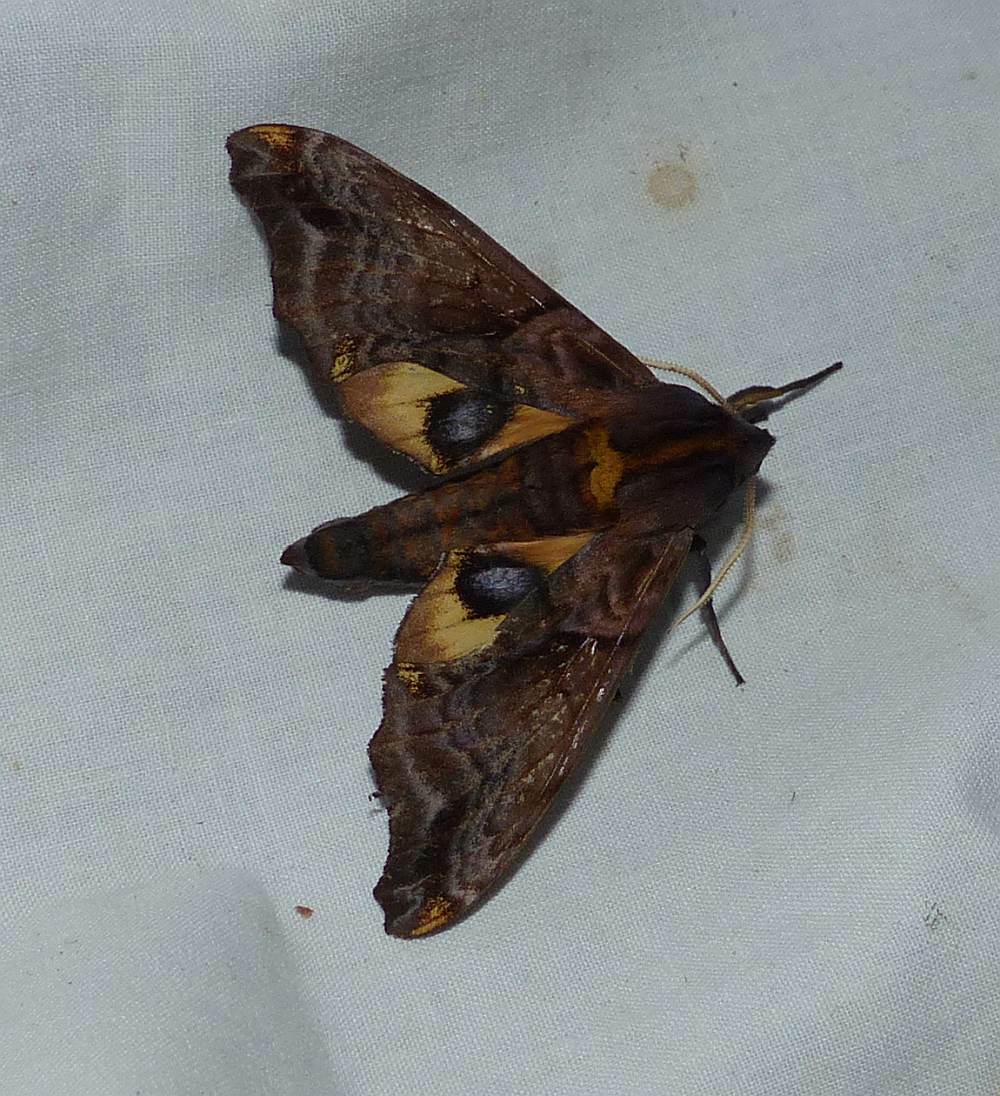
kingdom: Animalia
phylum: Arthropoda
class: Insecta
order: Lepidoptera
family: Sphingidae
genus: Paonias
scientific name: Paonias myops
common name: Small-eyed sphinx
